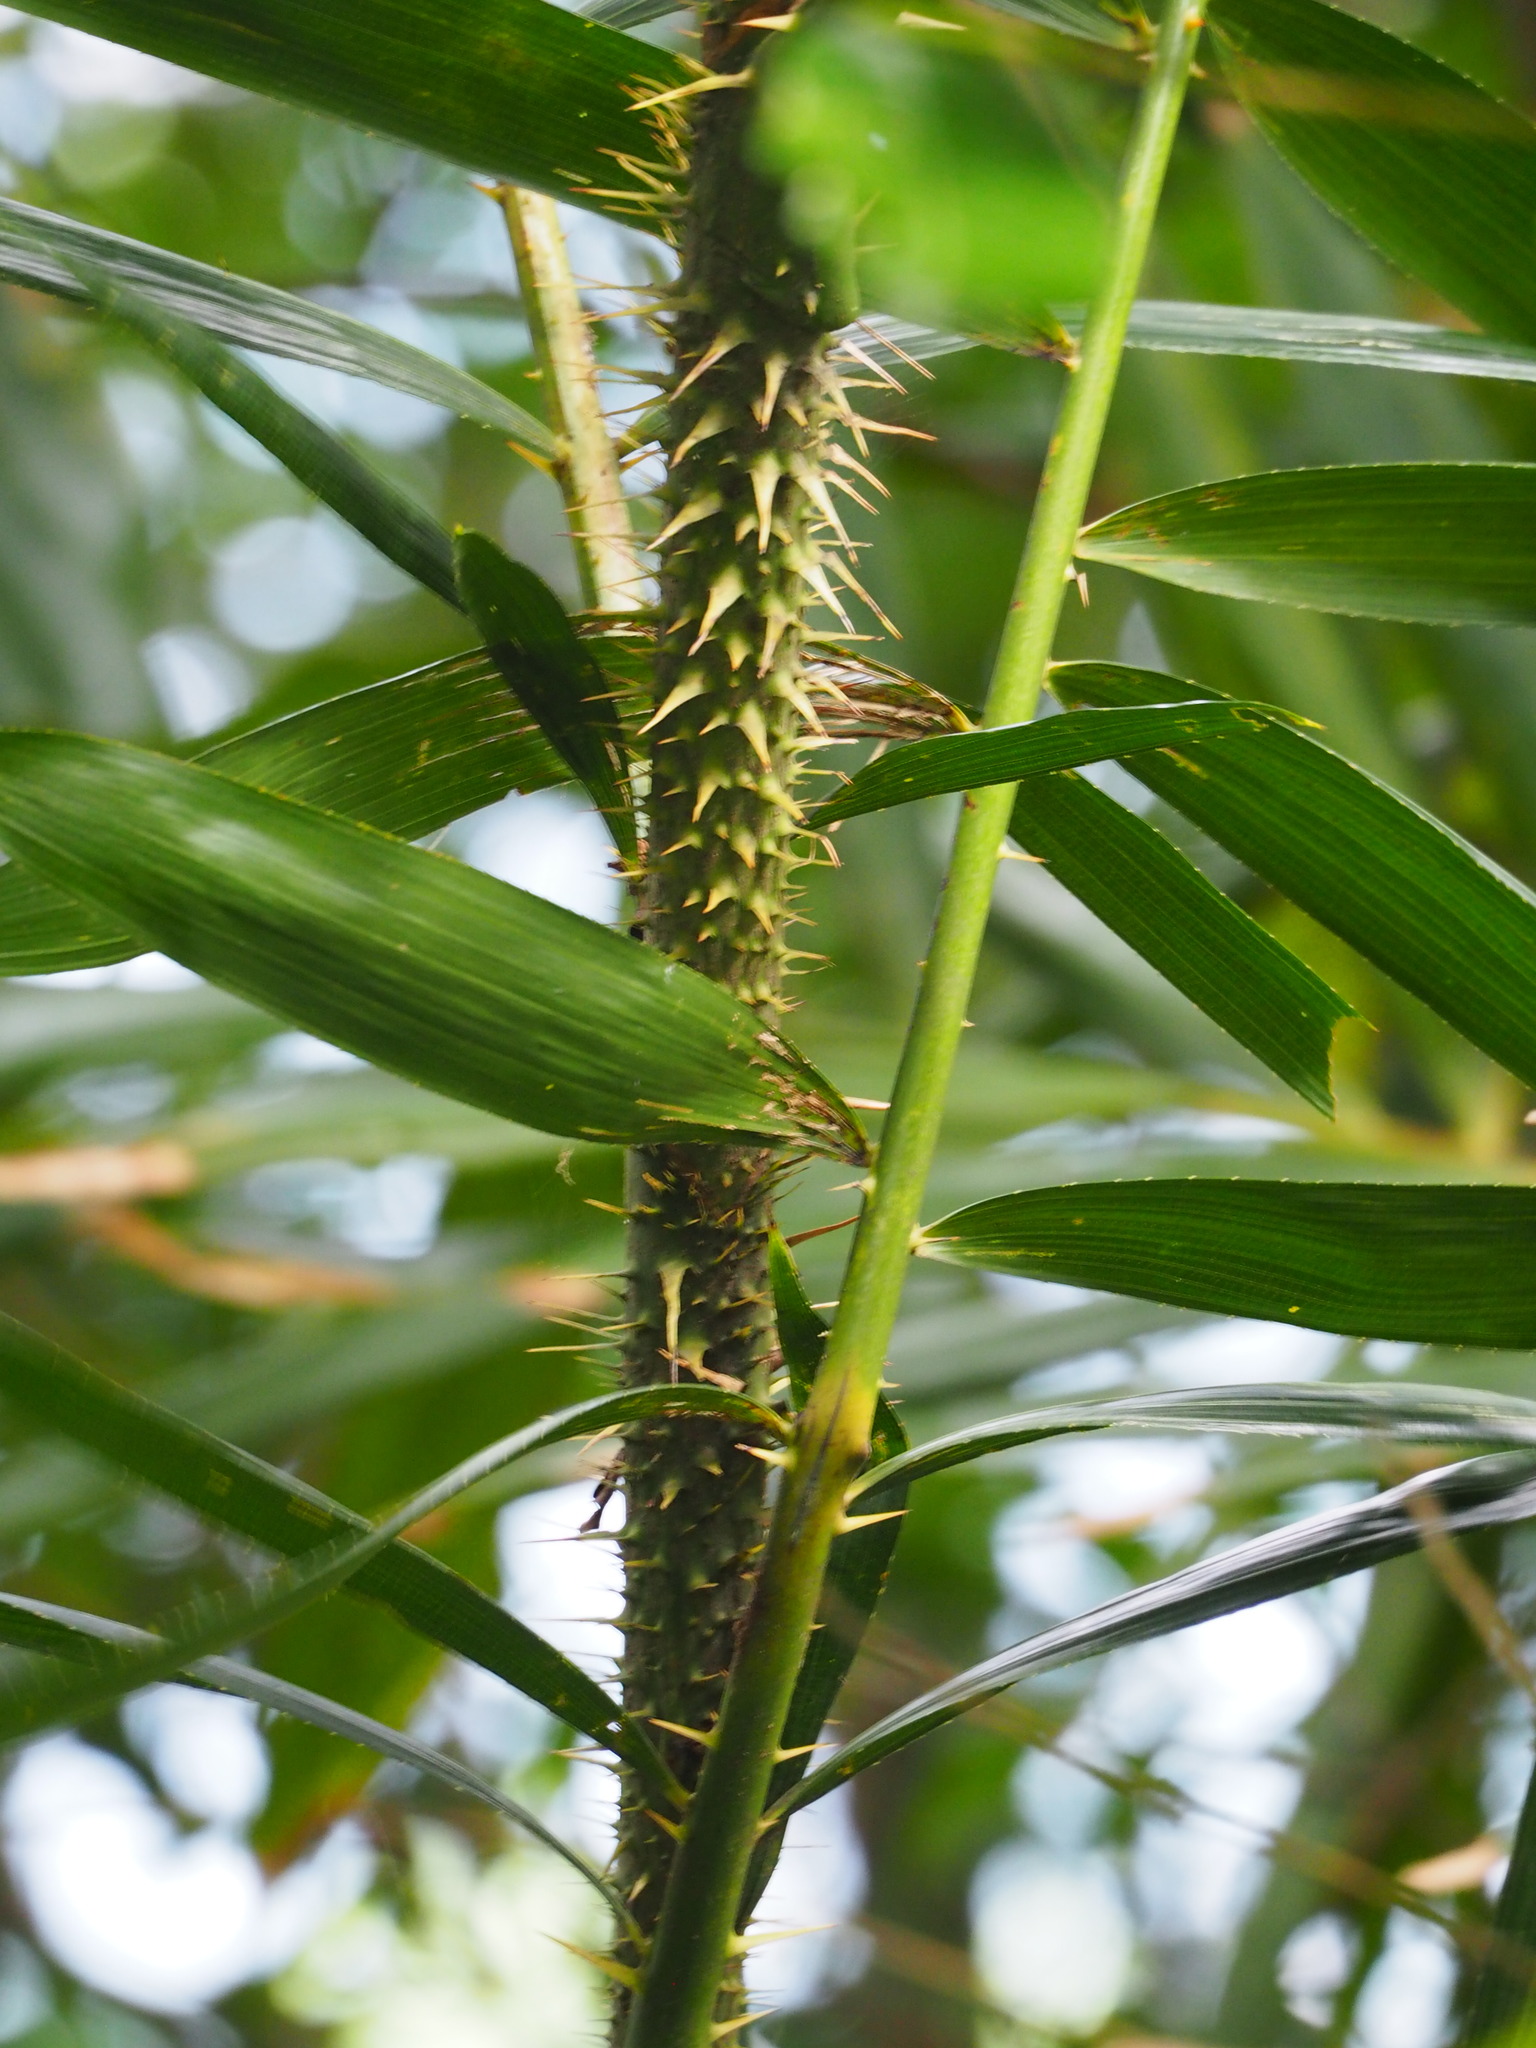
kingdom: Plantae
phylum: Tracheophyta
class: Liliopsida
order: Arecales
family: Arecaceae
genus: Calamus
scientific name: Calamus formosanus
